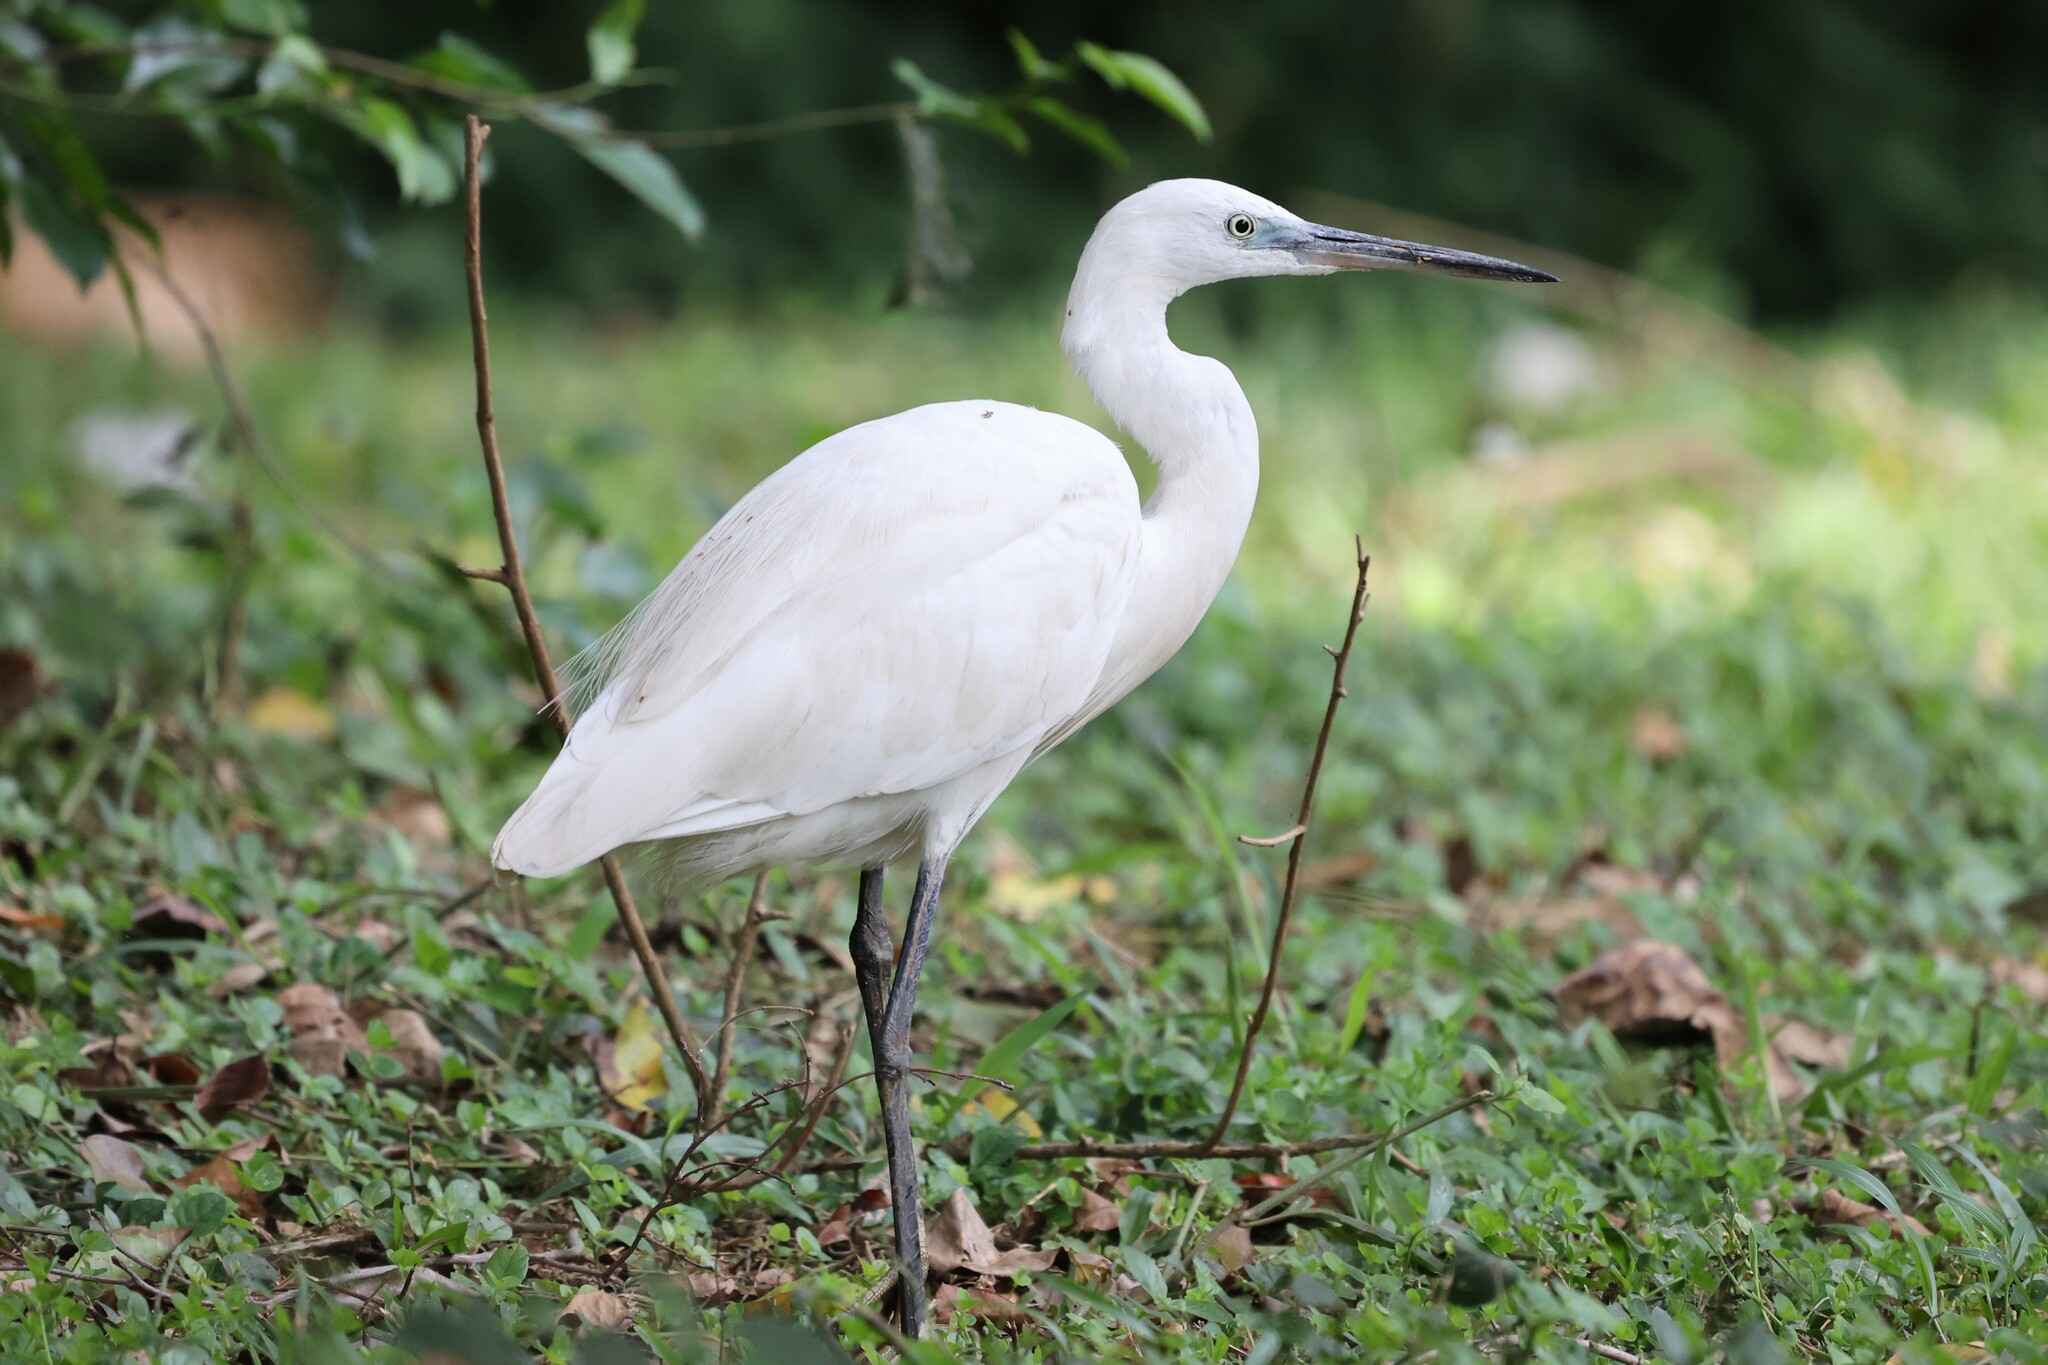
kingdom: Animalia
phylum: Chordata
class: Aves
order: Pelecaniformes
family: Ardeidae
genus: Egretta
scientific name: Egretta garzetta
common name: Little egret
